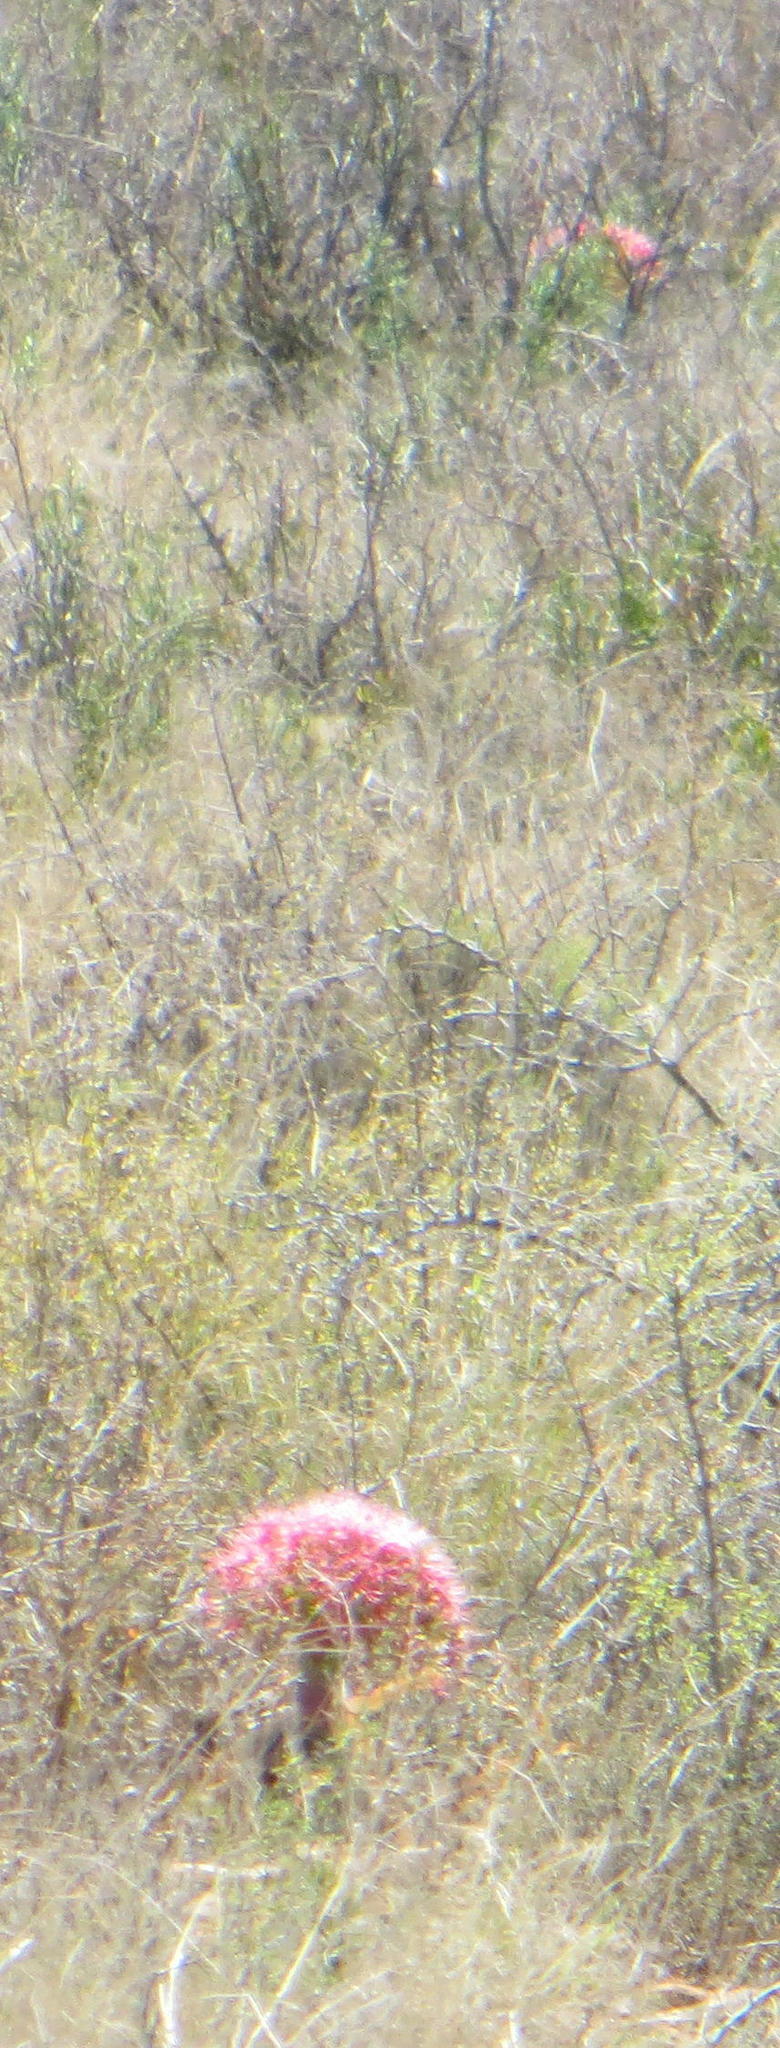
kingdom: Plantae
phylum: Tracheophyta
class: Liliopsida
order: Asparagales
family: Amaryllidaceae
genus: Boophone
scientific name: Boophone disticha
